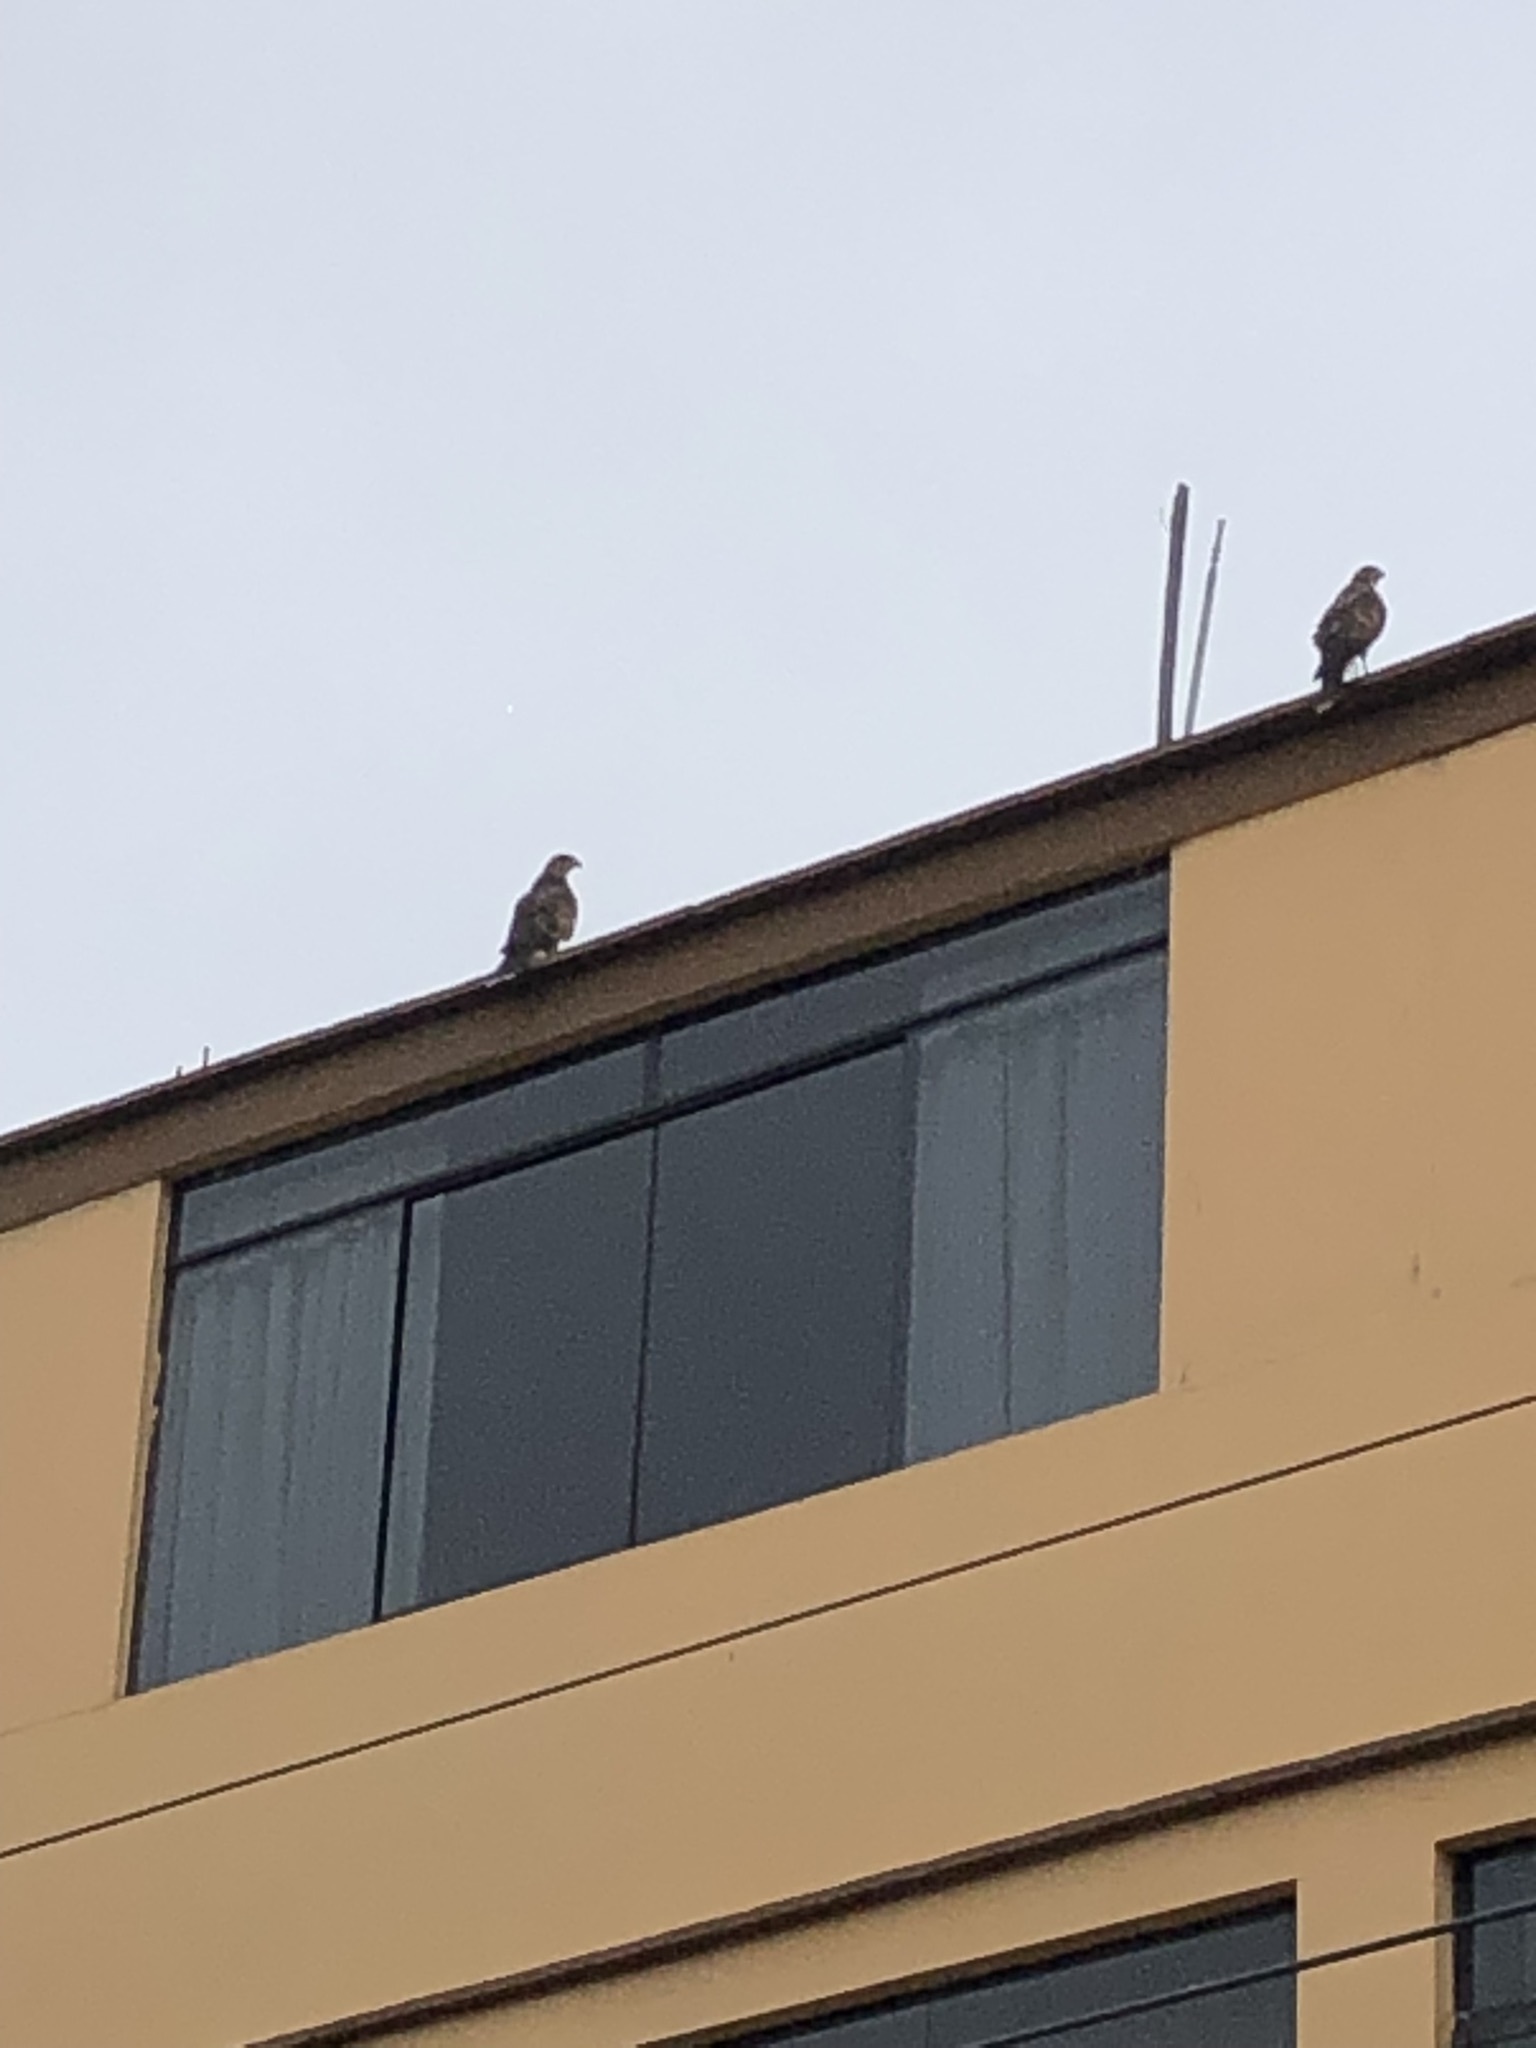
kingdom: Animalia
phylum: Chordata
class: Aves
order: Accipitriformes
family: Accipitridae
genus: Parabuteo
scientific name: Parabuteo unicinctus
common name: Harris's hawk
